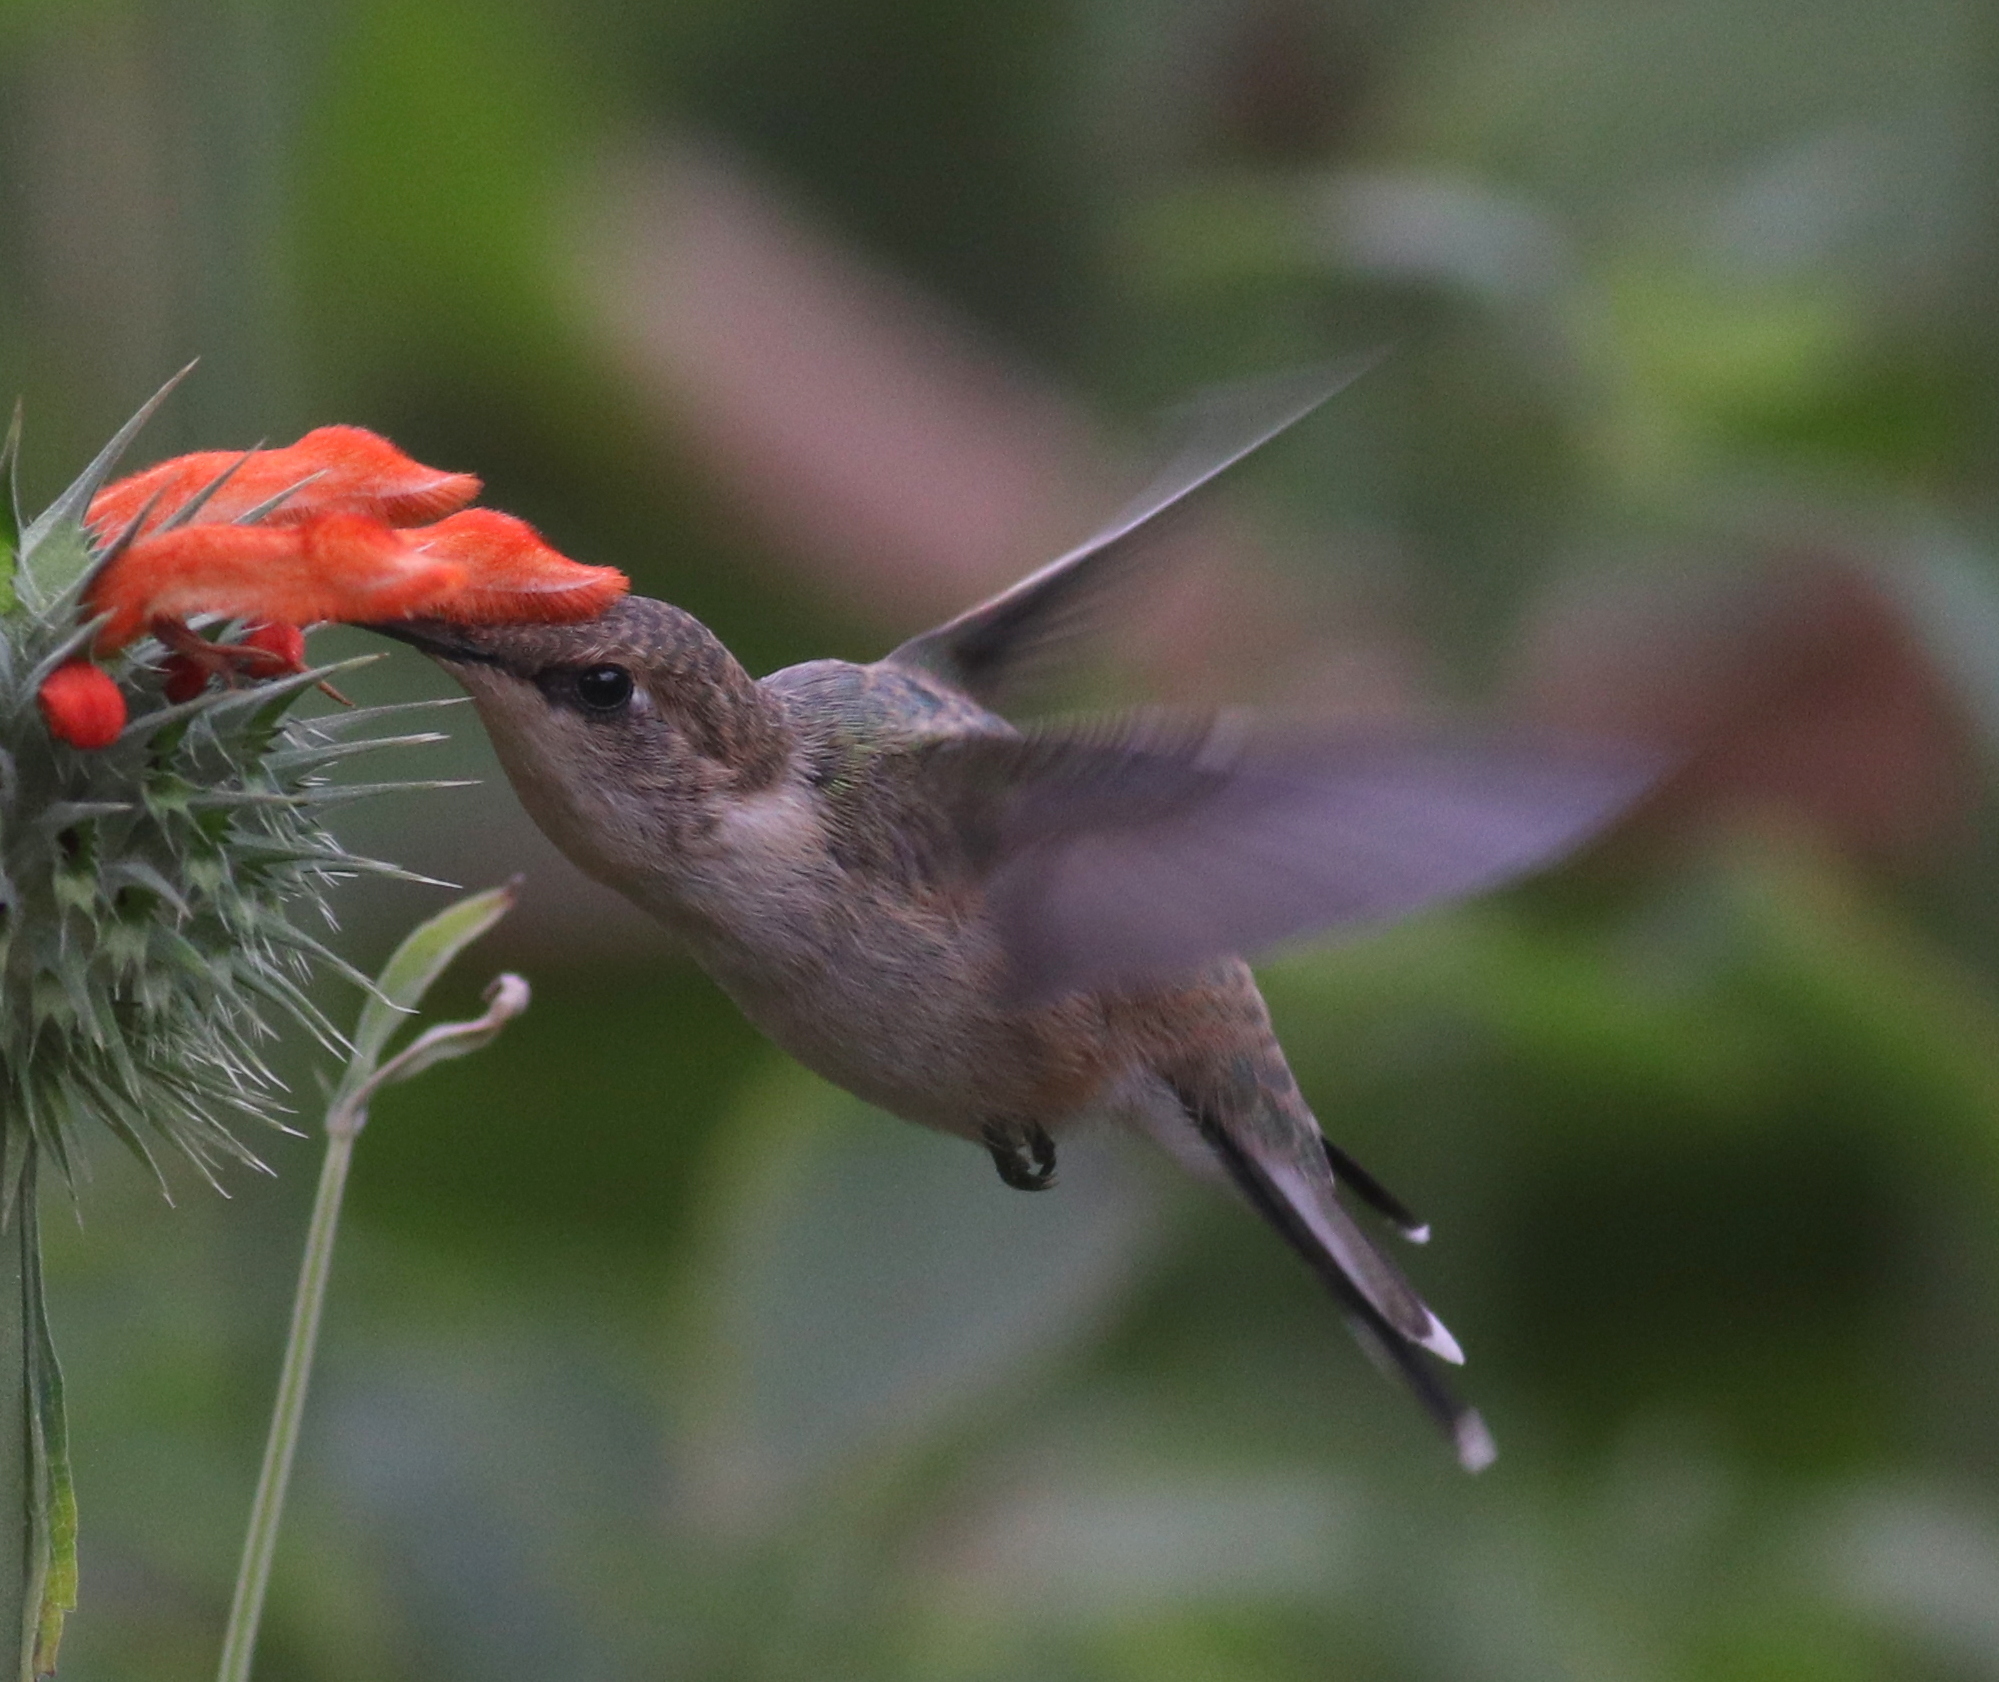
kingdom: Animalia
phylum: Chordata
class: Aves
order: Apodiformes
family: Trochilidae
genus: Rhodopis
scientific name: Rhodopis vesper
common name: Oasis hummingbird
